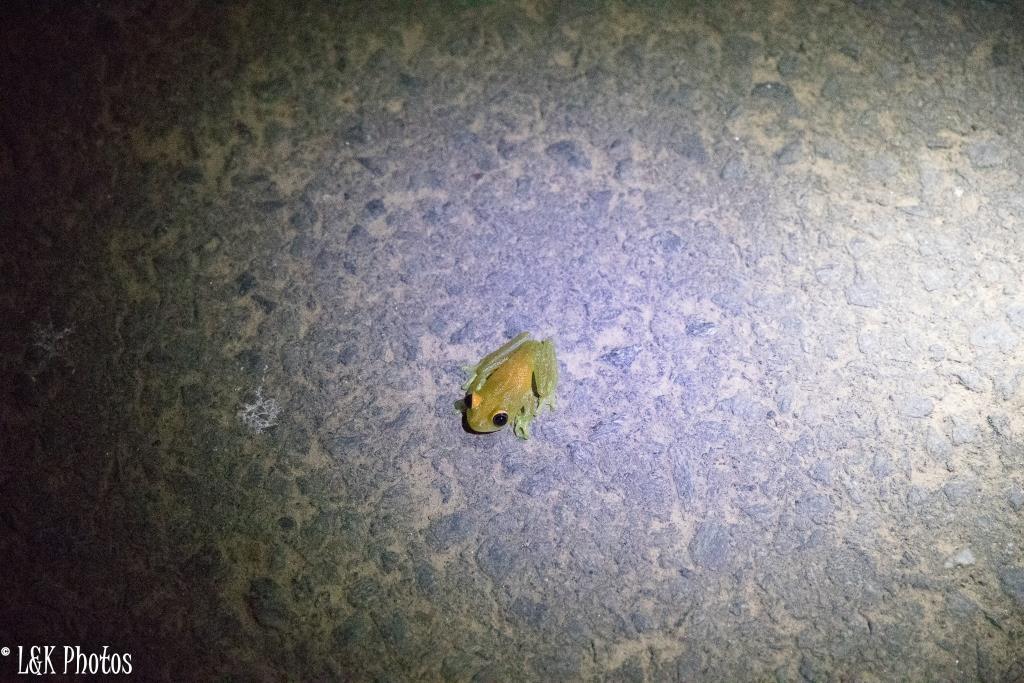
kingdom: Animalia
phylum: Chordata
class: Amphibia
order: Anura
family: Mantellidae
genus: Boophis
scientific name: Boophis viridis
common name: Green bright-eyed frog
